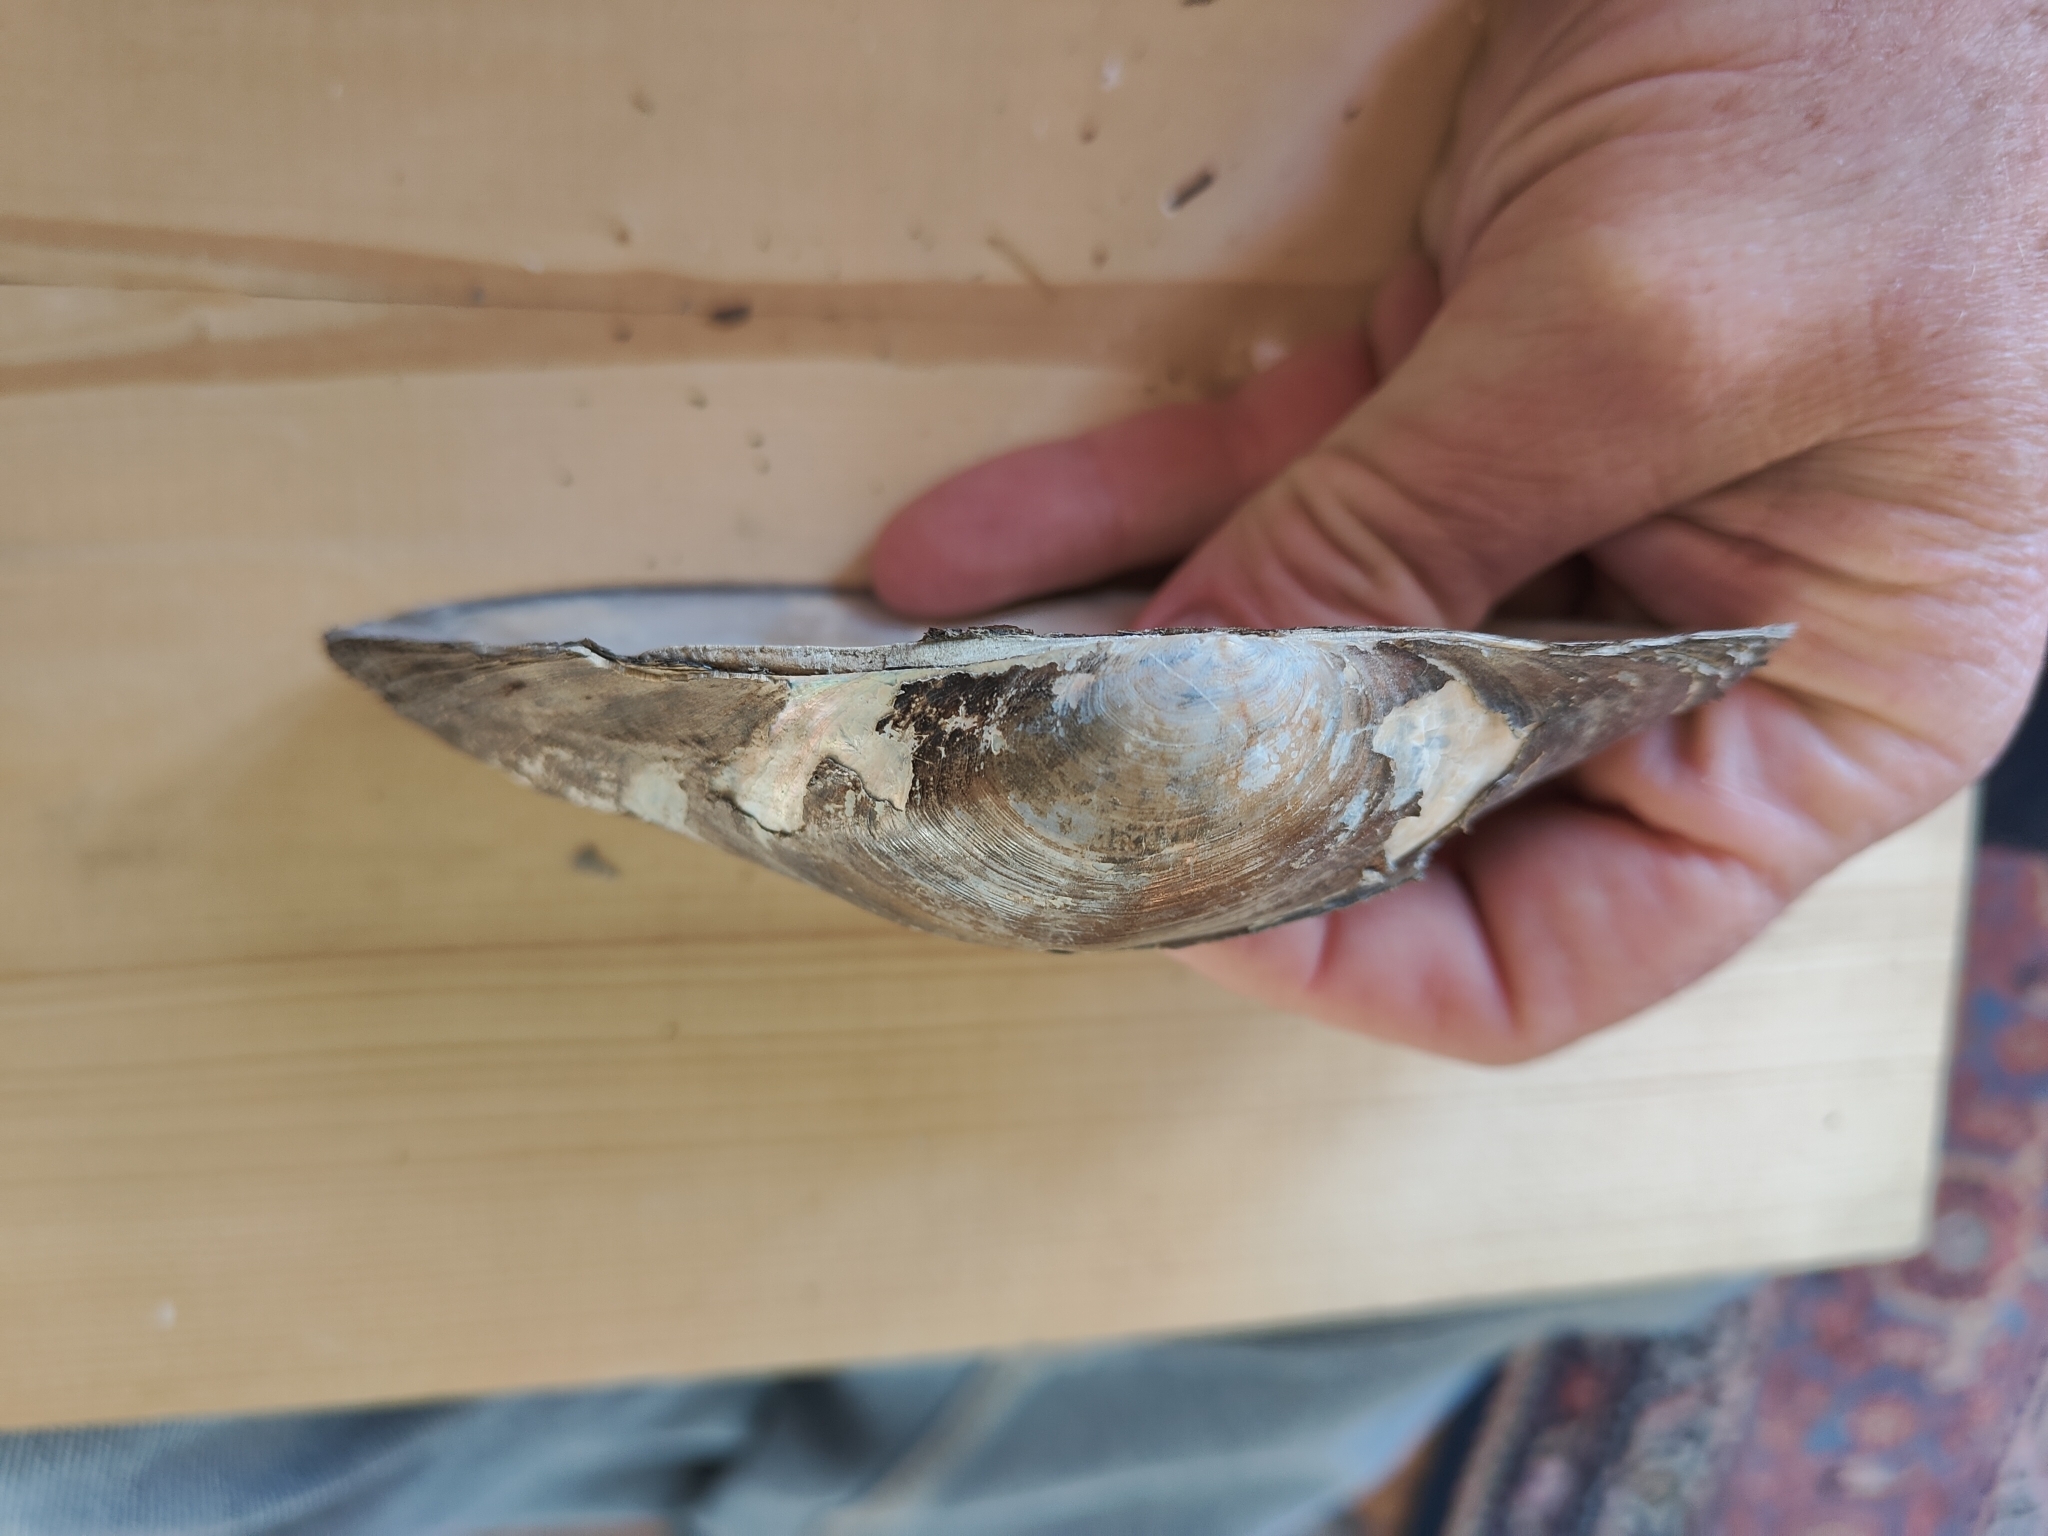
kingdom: Animalia
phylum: Mollusca
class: Bivalvia
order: Unionida
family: Unionidae
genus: Pyganodon
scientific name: Pyganodon grandis
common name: Giant floater
